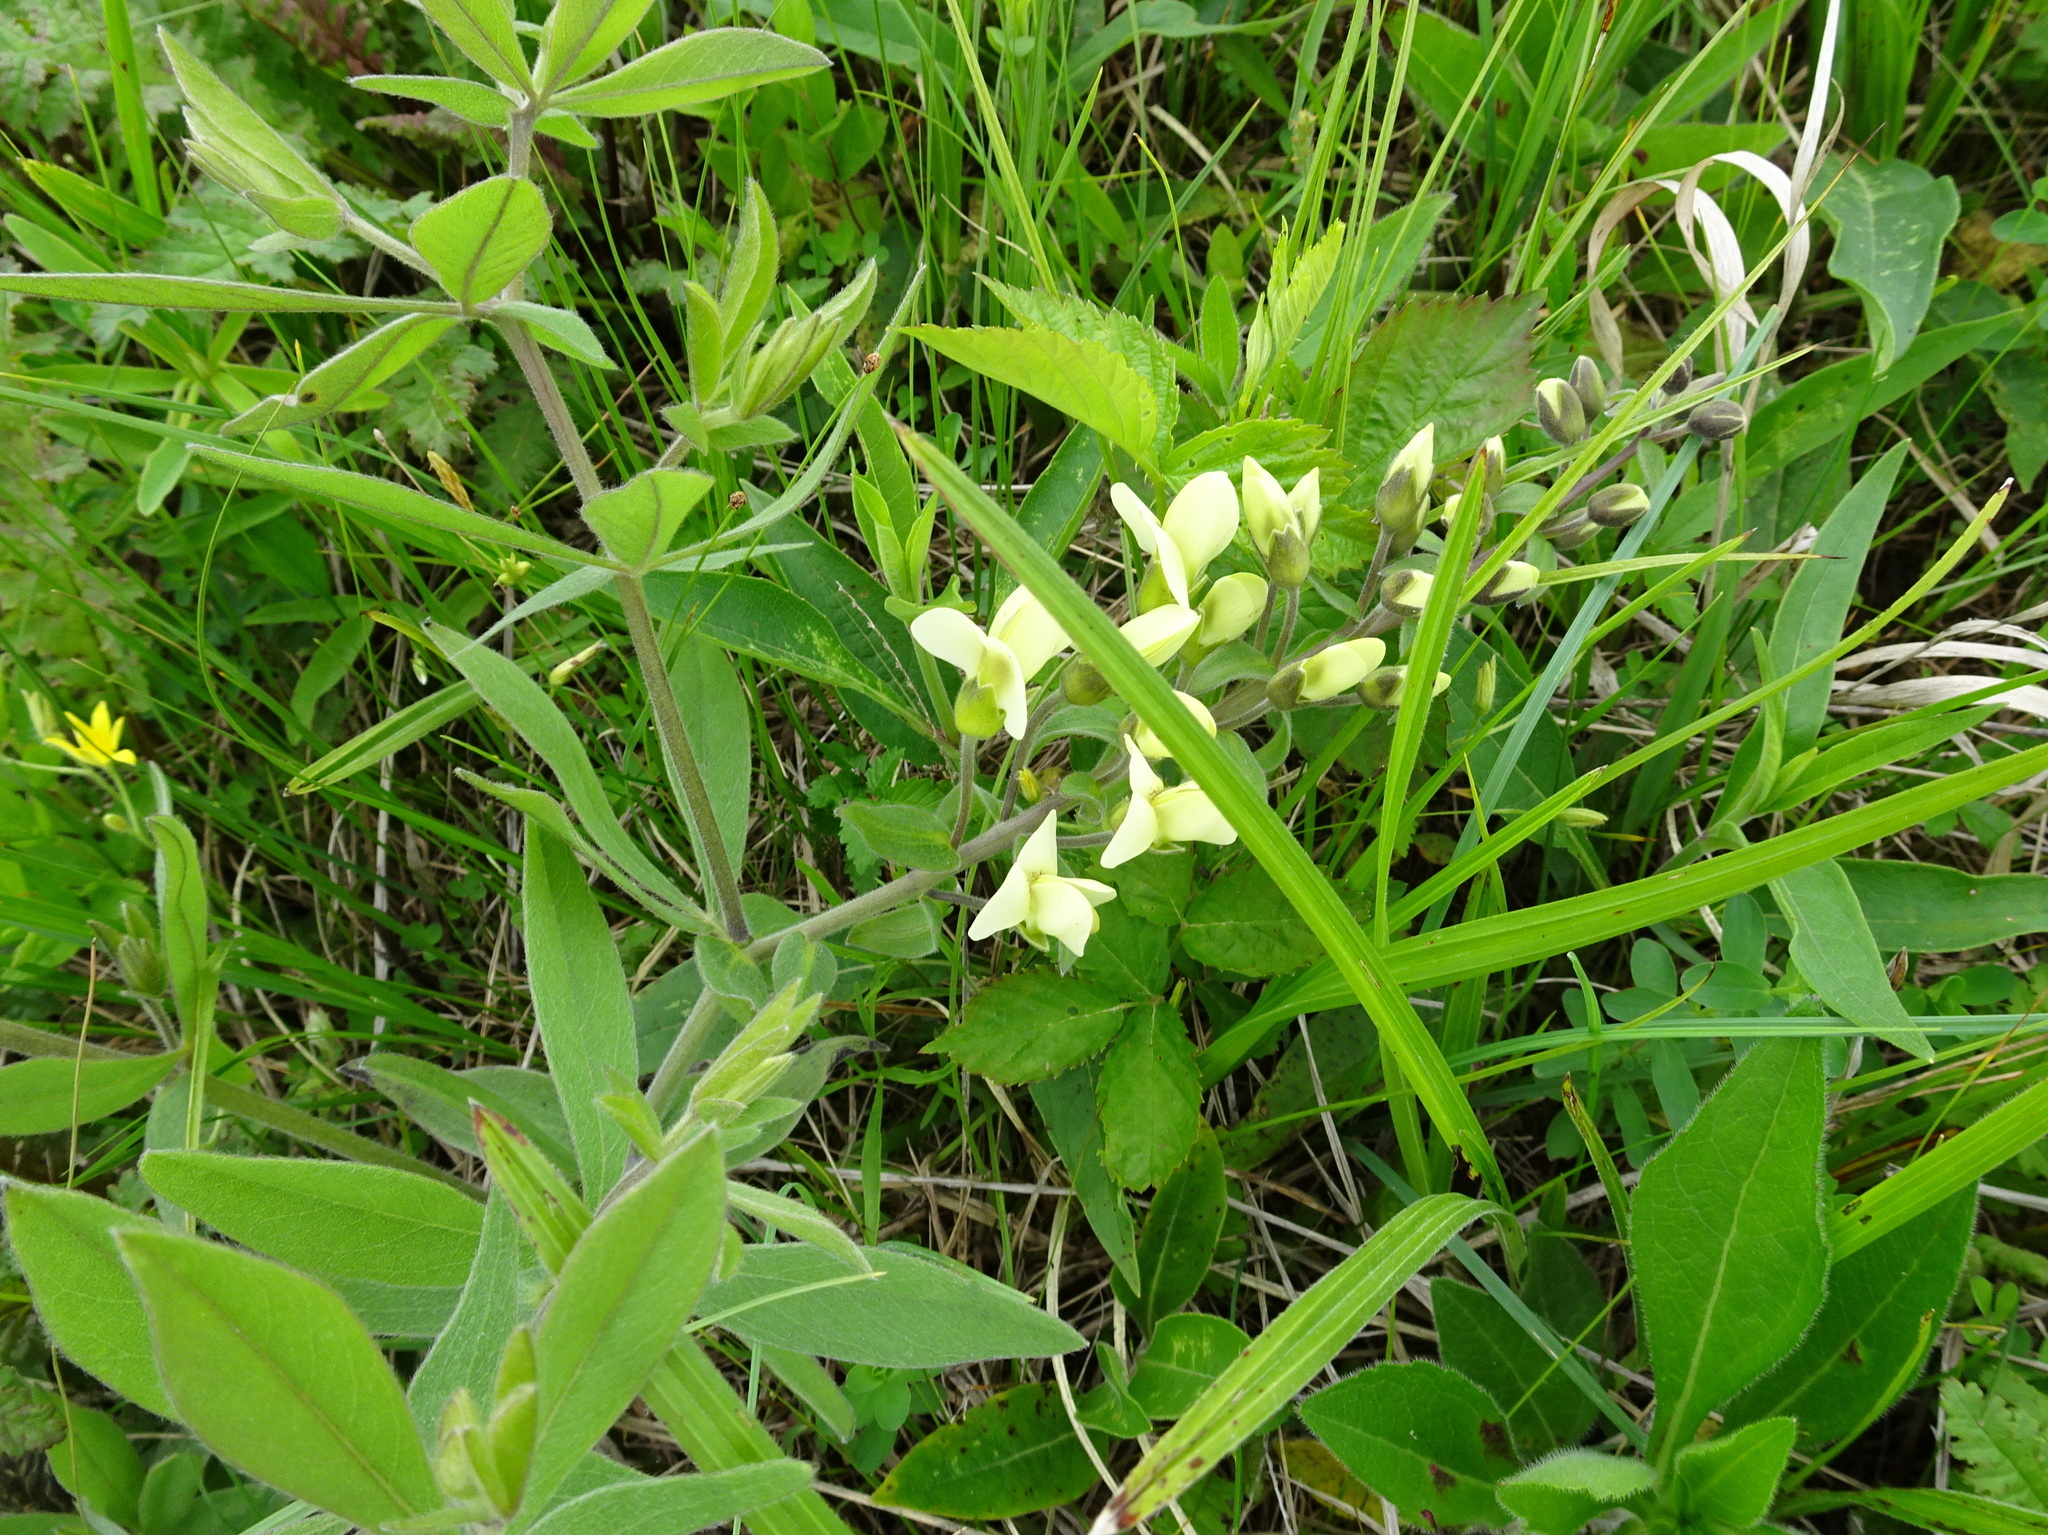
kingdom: Plantae
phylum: Tracheophyta
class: Magnoliopsida
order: Fabales
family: Fabaceae
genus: Baptisia
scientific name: Baptisia bracteata
